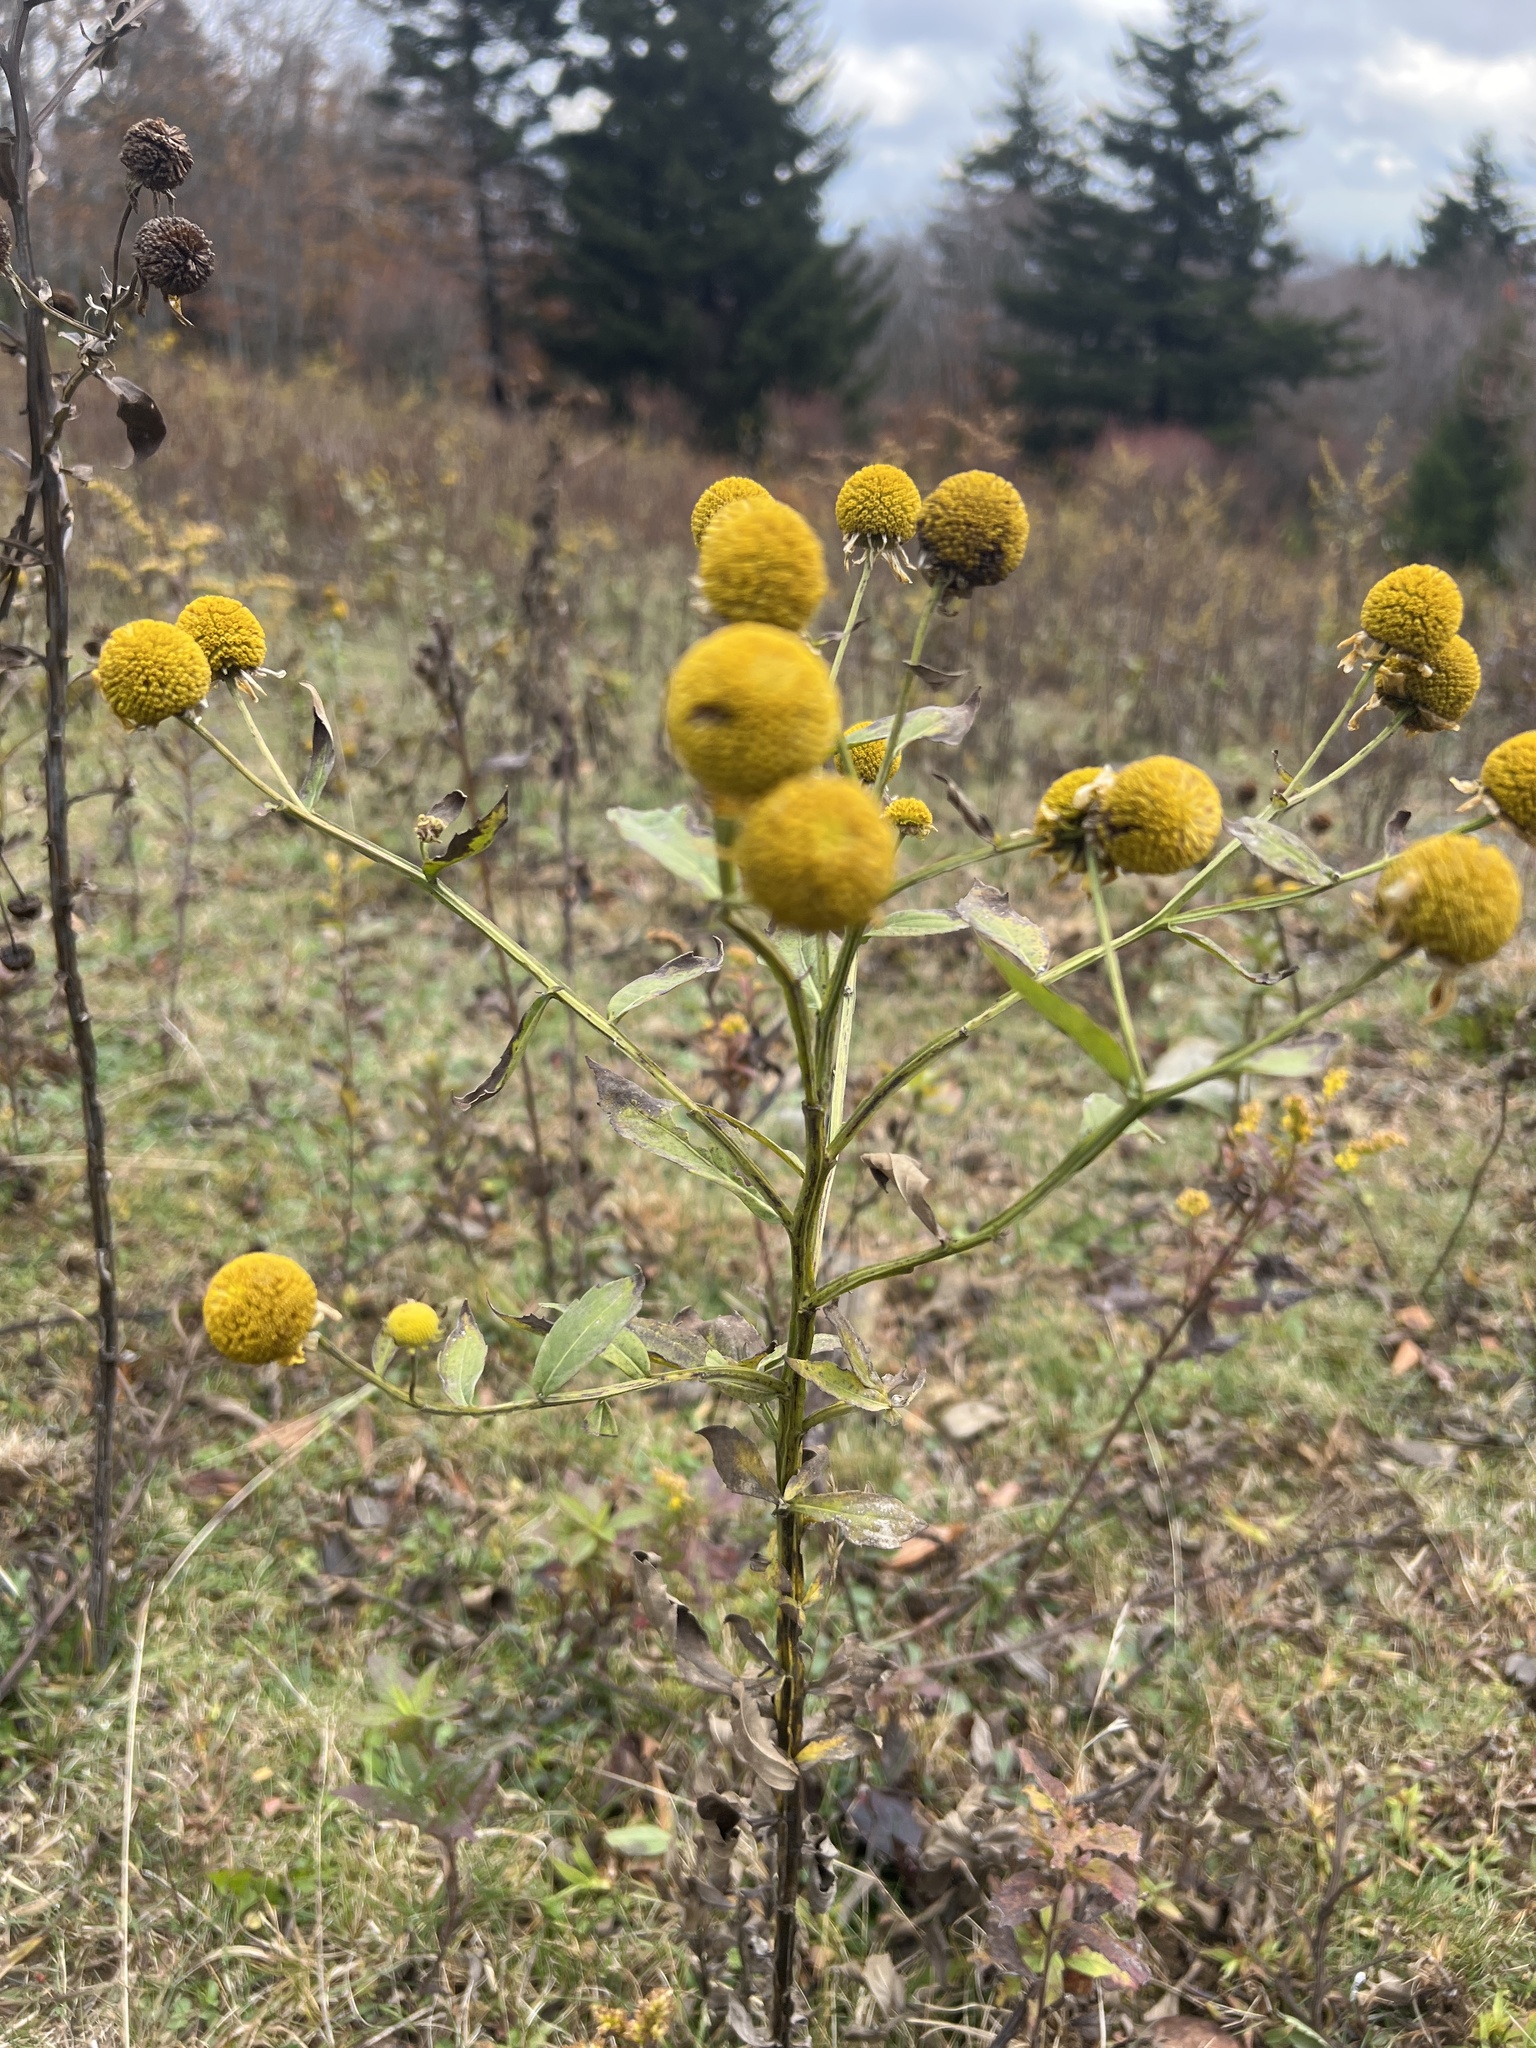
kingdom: Plantae
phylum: Tracheophyta
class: Magnoliopsida
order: Asterales
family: Asteraceae
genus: Helenium
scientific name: Helenium autumnale
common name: Sneezeweed
